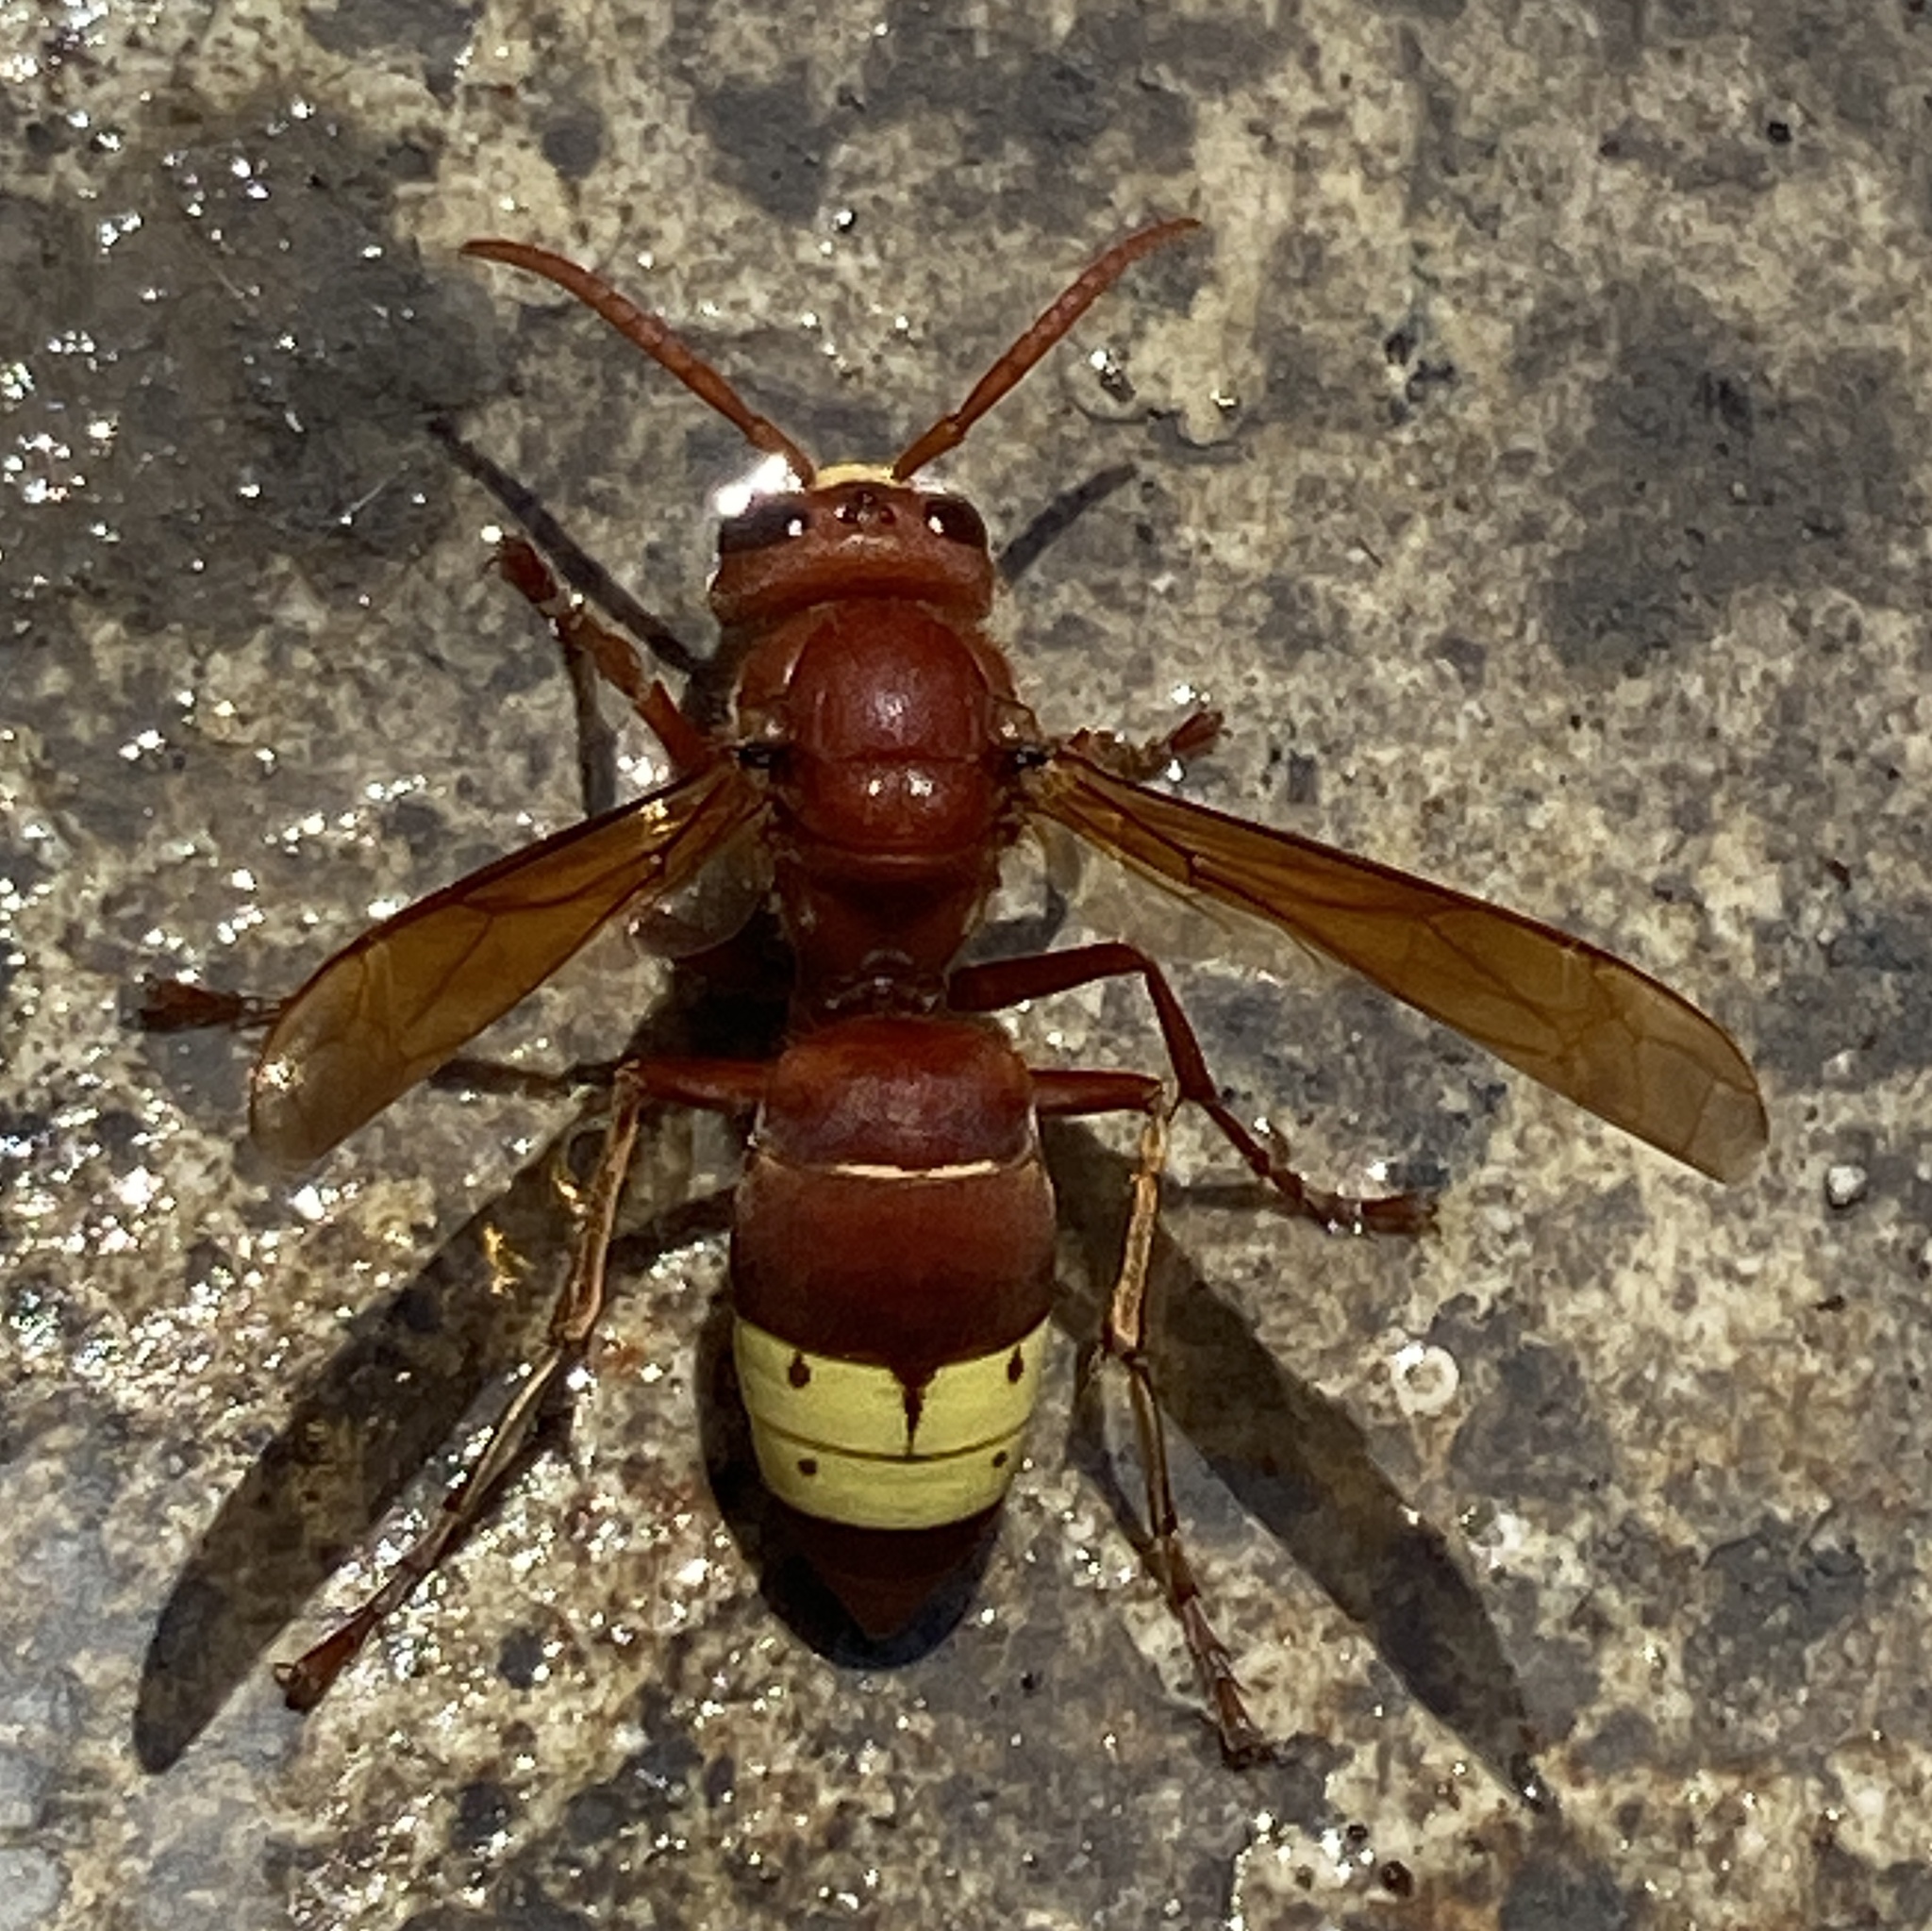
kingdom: Animalia
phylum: Arthropoda
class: Insecta
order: Hymenoptera
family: Vespidae
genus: Vespa
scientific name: Vespa orientalis
